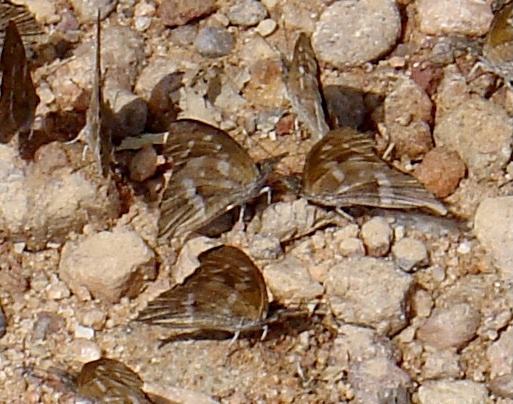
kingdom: Animalia
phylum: Arthropoda
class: Insecta
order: Lepidoptera
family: Nymphalidae
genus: Libythea
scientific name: Libythea labdaca
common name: Northern african snout
